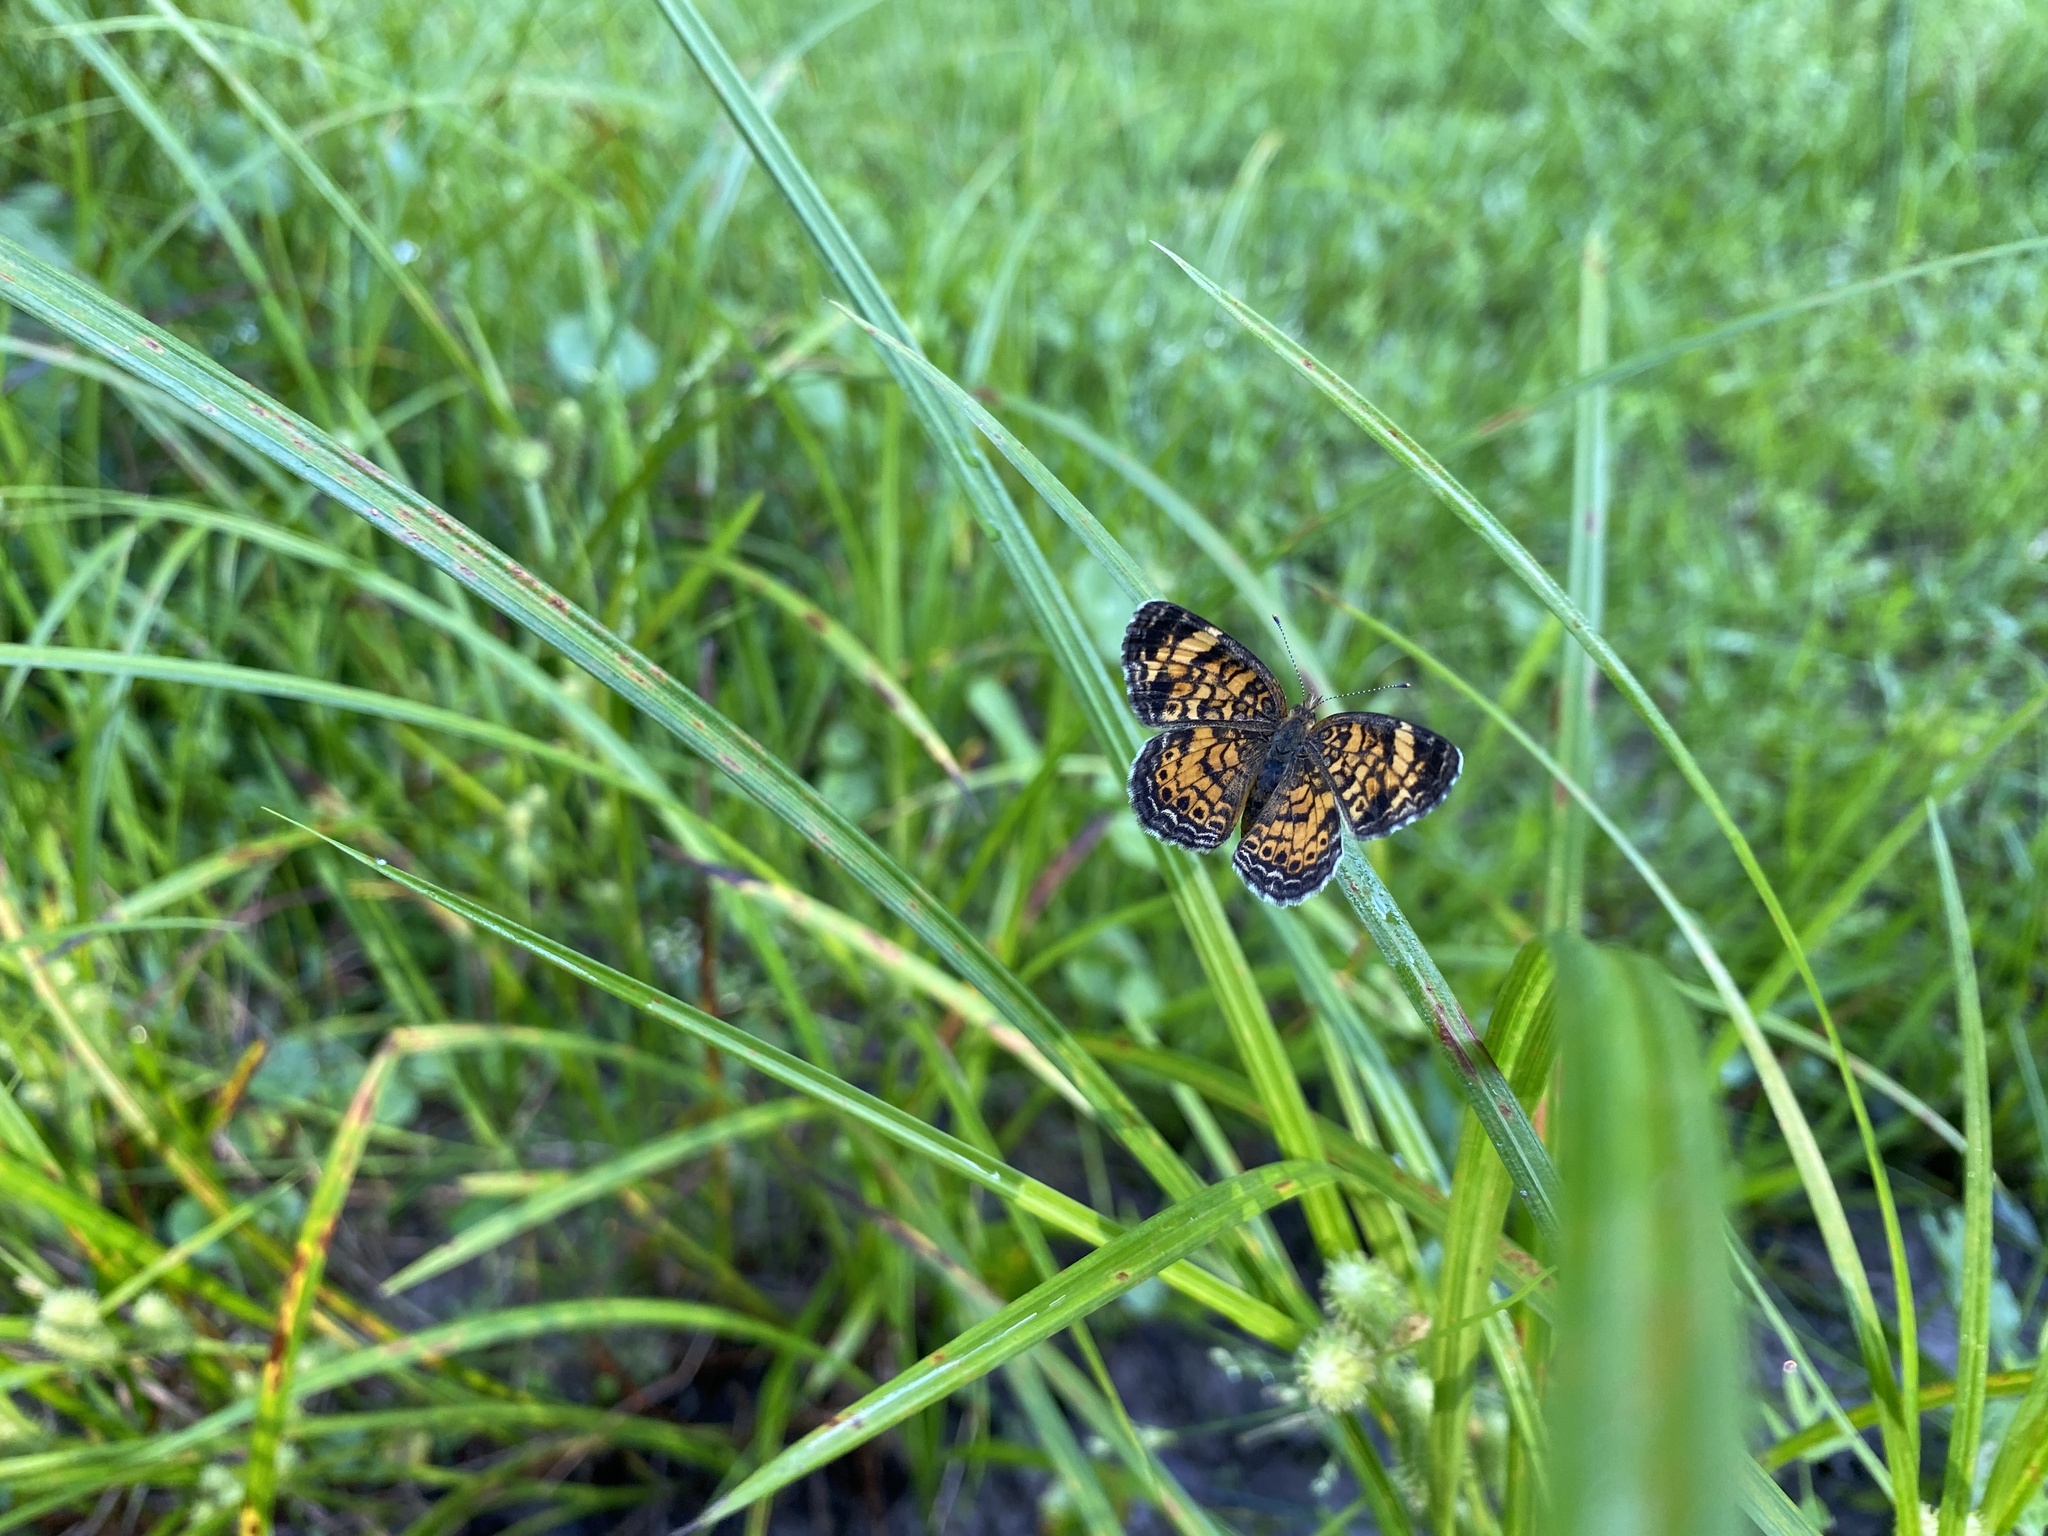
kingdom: Animalia
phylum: Arthropoda
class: Insecta
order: Lepidoptera
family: Nymphalidae
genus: Phyciodes
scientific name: Phyciodes tharos
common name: Pearl crescent
